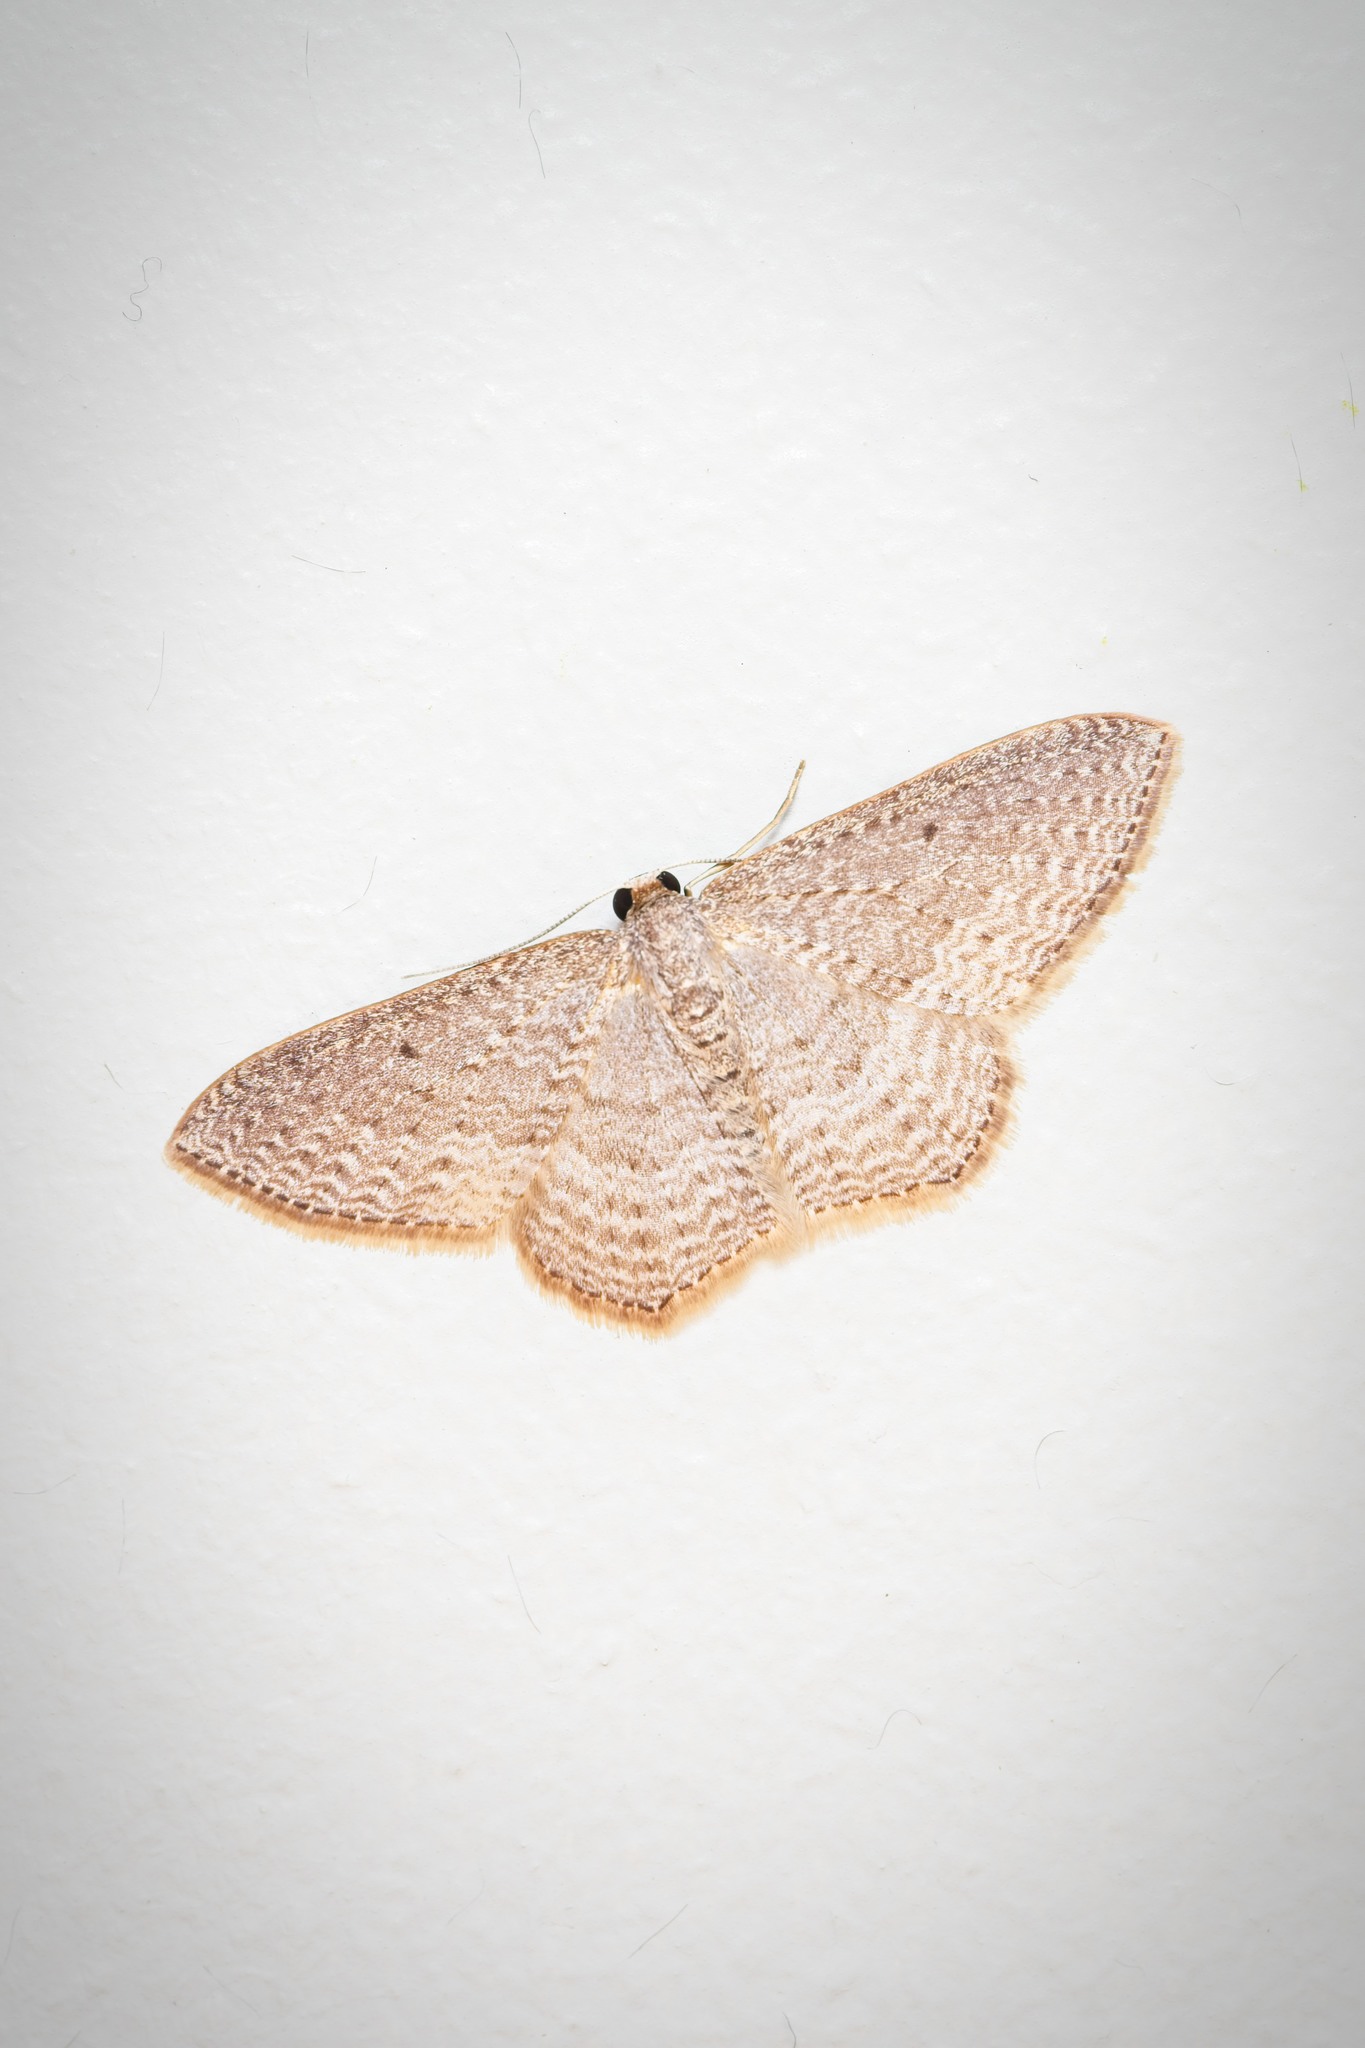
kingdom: Animalia
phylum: Arthropoda
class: Insecta
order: Lepidoptera
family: Geometridae
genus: Poecilasthena
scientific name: Poecilasthena subpurpureata
